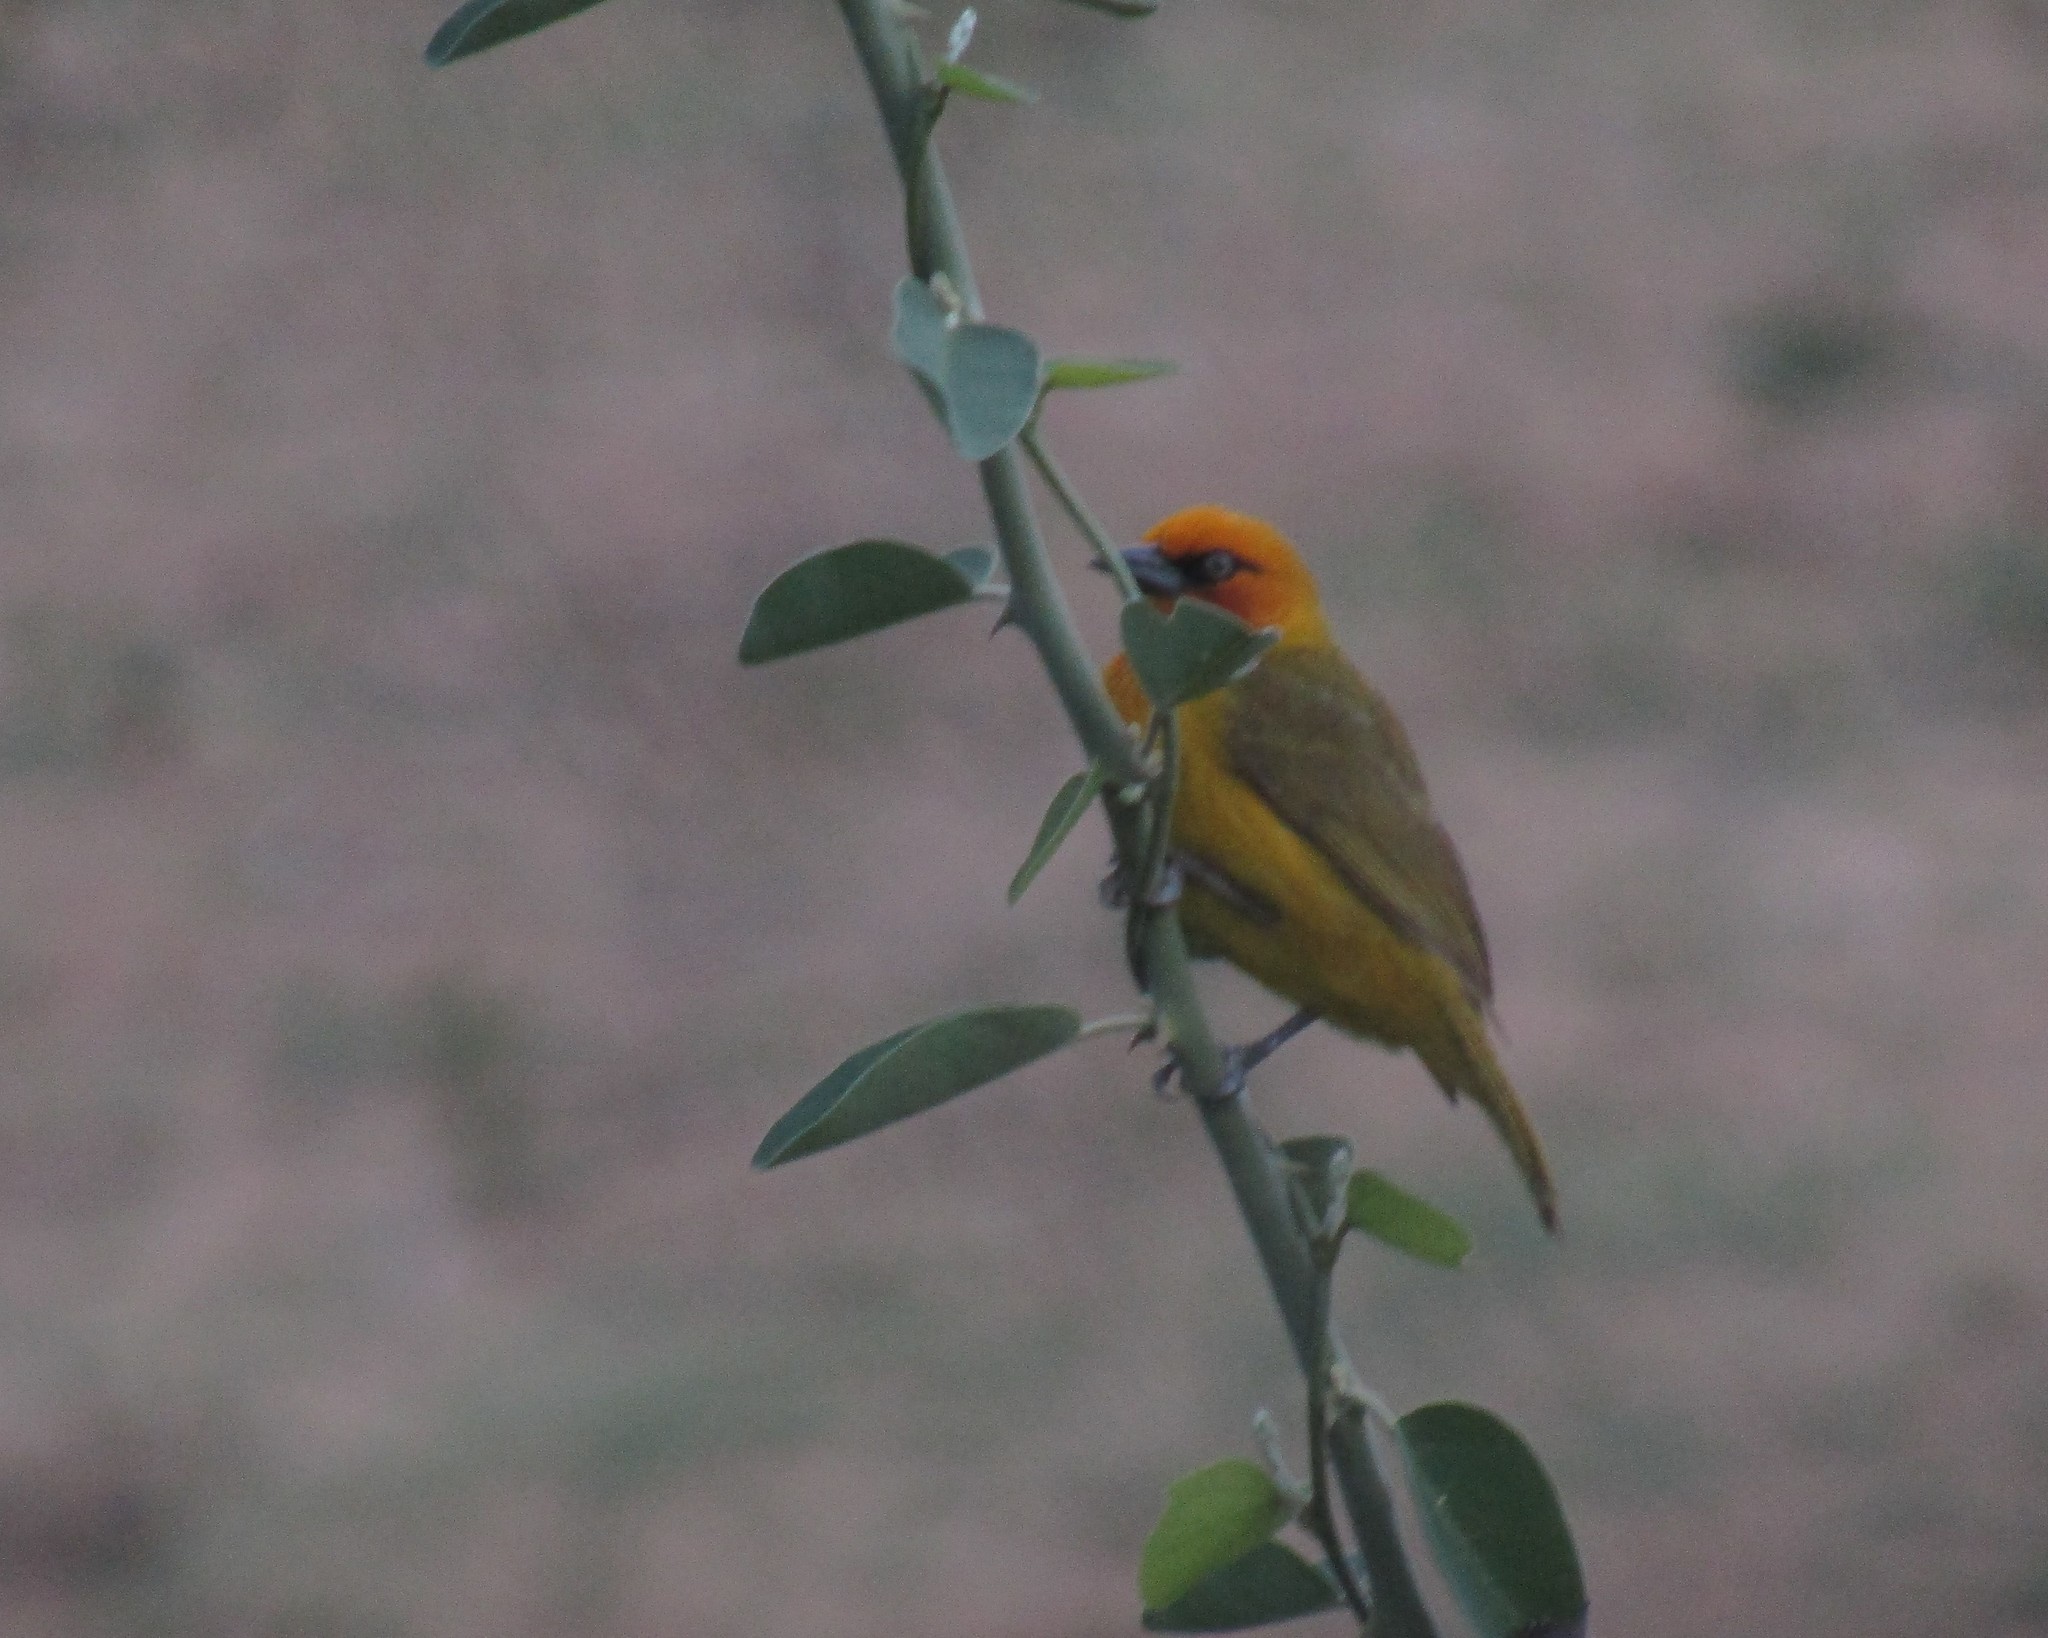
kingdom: Animalia
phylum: Chordata
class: Aves
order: Passeriformes
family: Ploceidae
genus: Ploceus
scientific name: Ploceus ocularis
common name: Spectacled weaver
